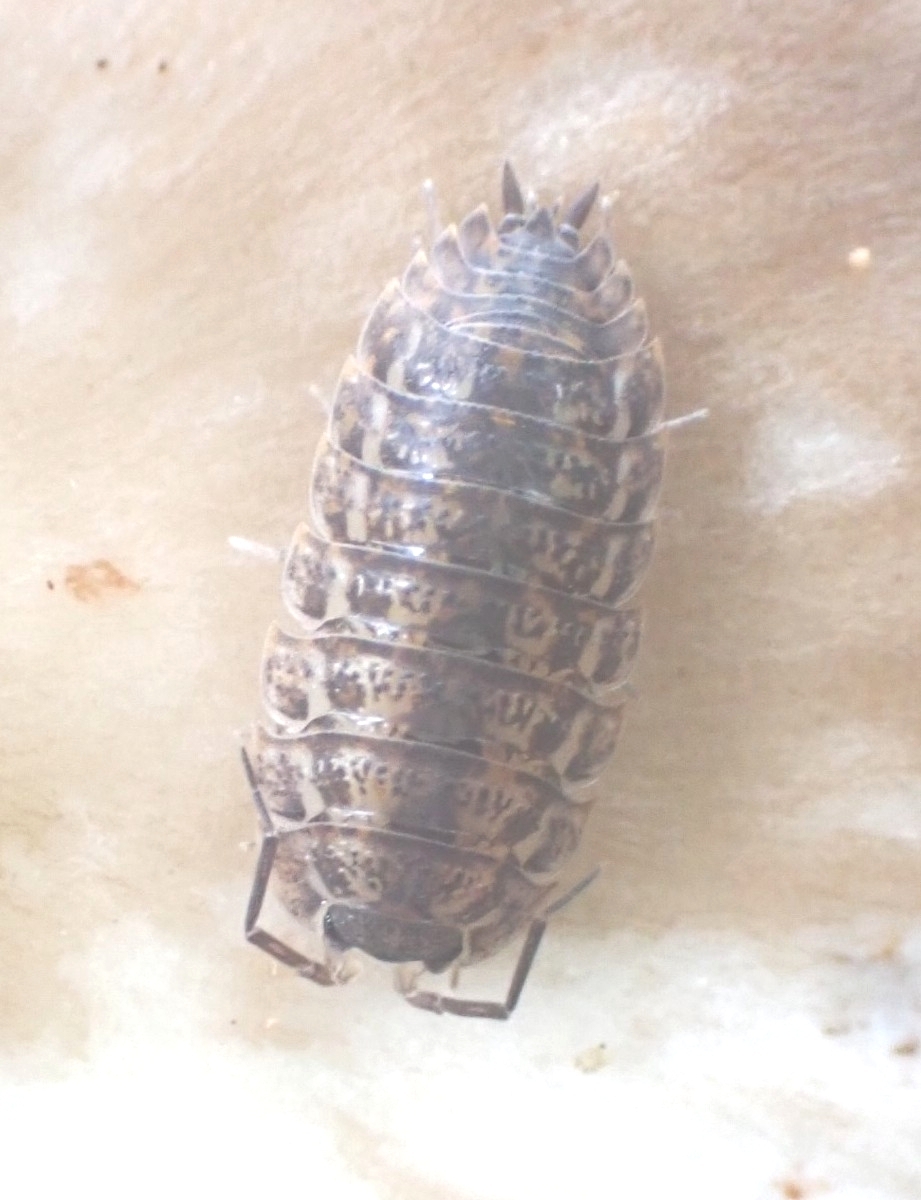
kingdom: Animalia
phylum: Arthropoda
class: Malacostraca
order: Isopoda
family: Trachelipodidae
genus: Trachelipus
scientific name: Trachelipus rathkii
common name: Isopod
